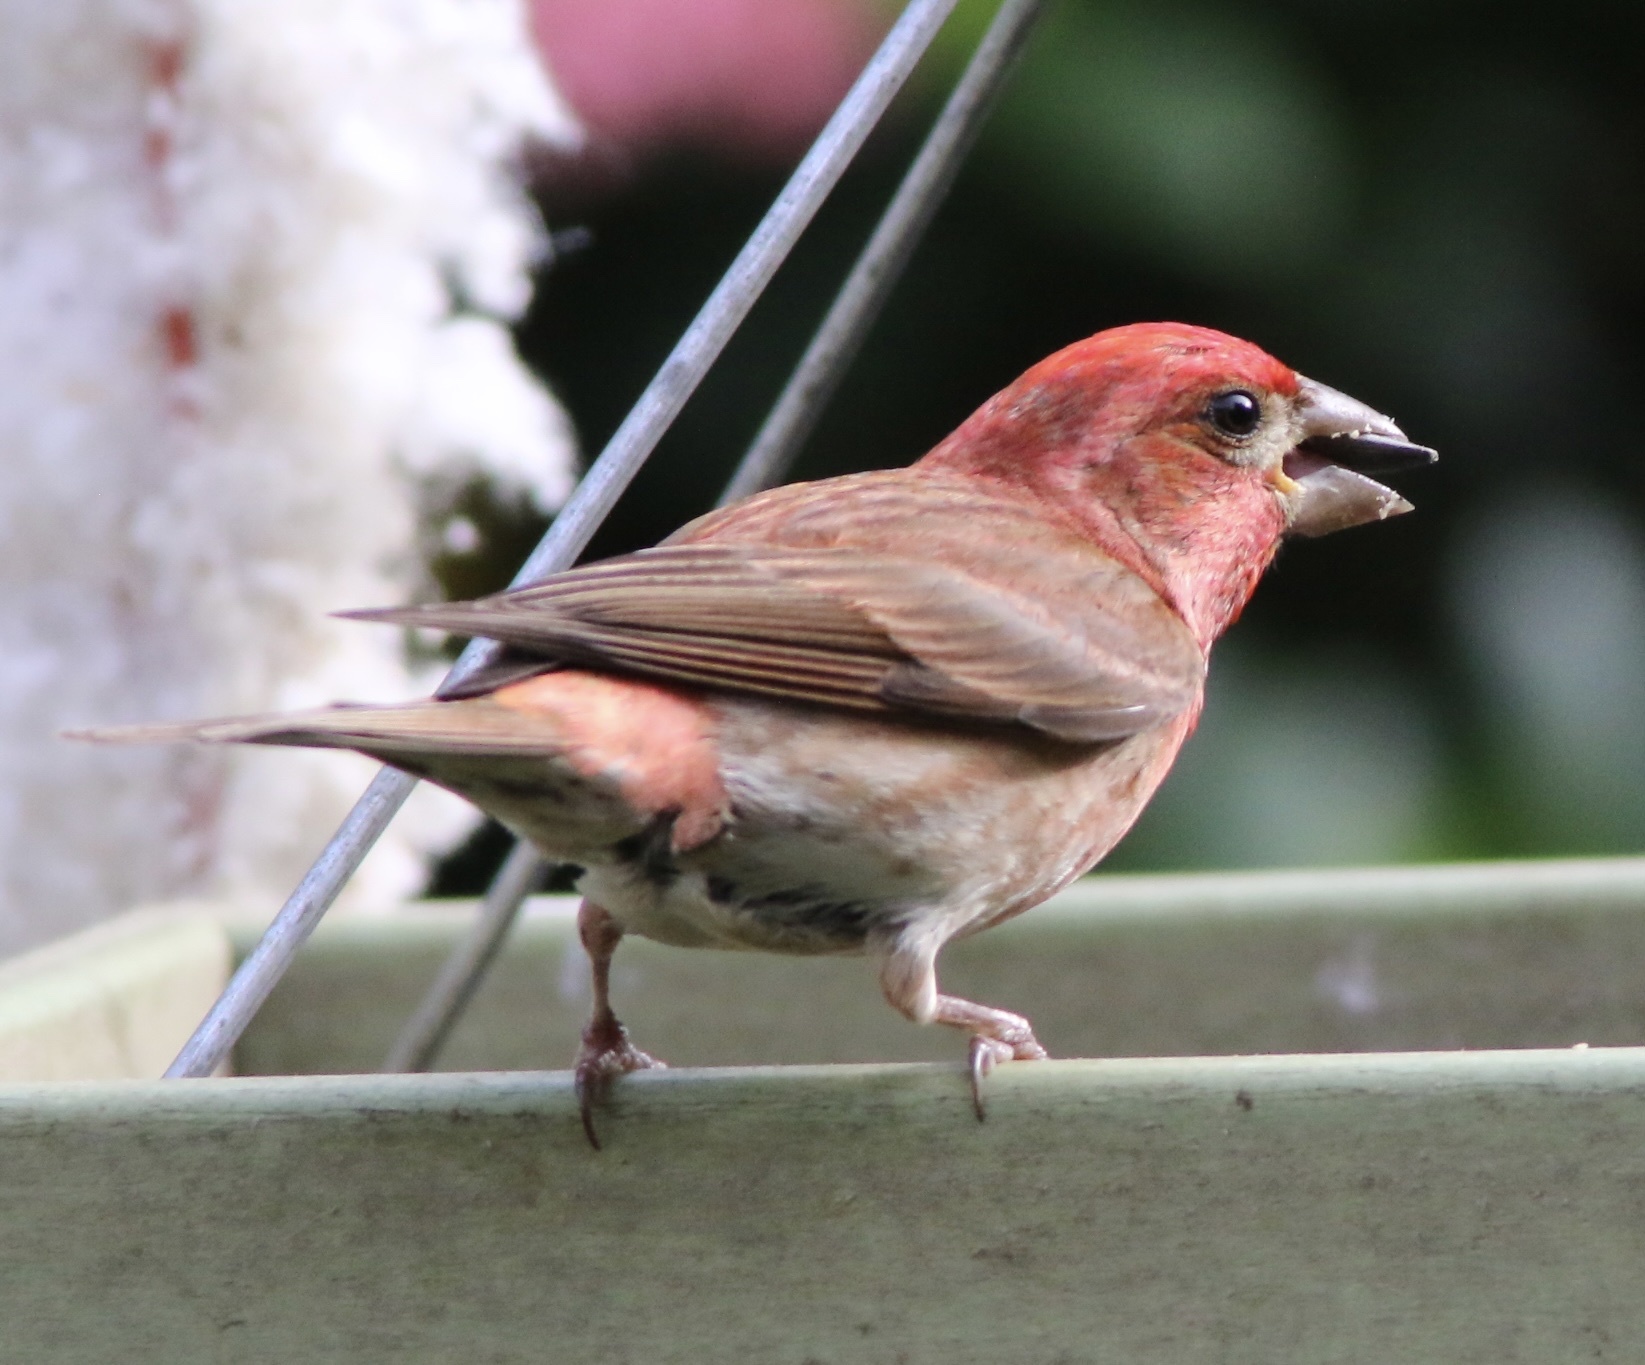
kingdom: Animalia
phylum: Chordata
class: Aves
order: Passeriformes
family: Fringillidae
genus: Haemorhous
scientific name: Haemorhous purpureus
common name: Purple finch
